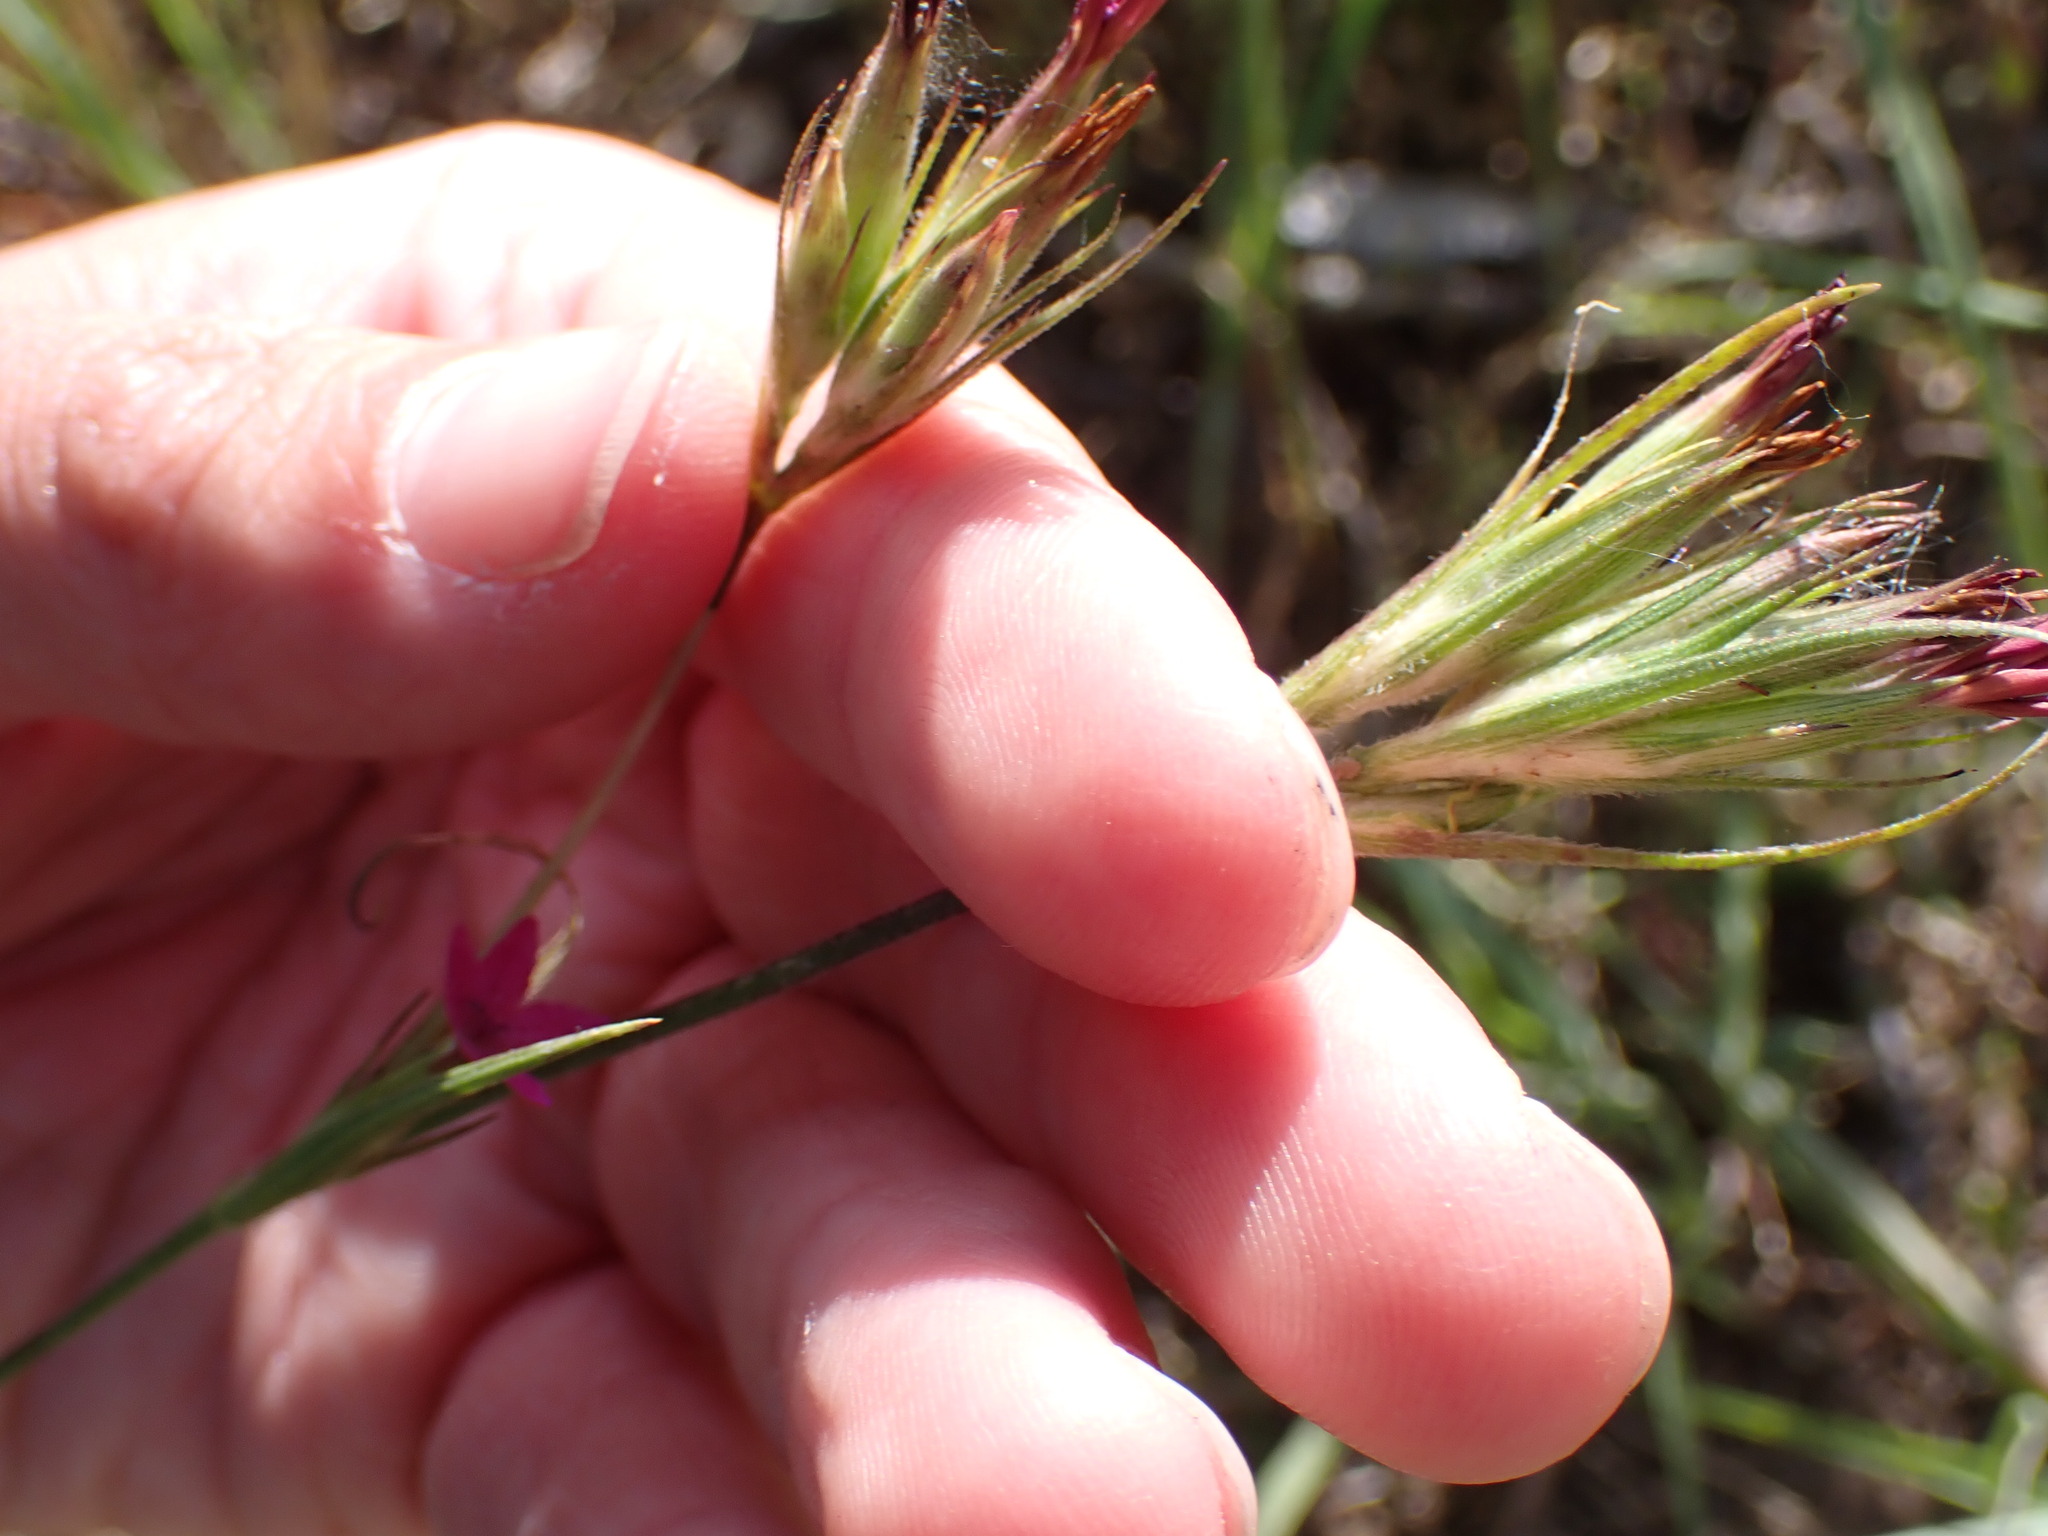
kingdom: Plantae
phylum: Tracheophyta
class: Magnoliopsida
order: Caryophyllales
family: Caryophyllaceae
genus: Dianthus
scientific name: Dianthus armeria
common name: Deptford pink
